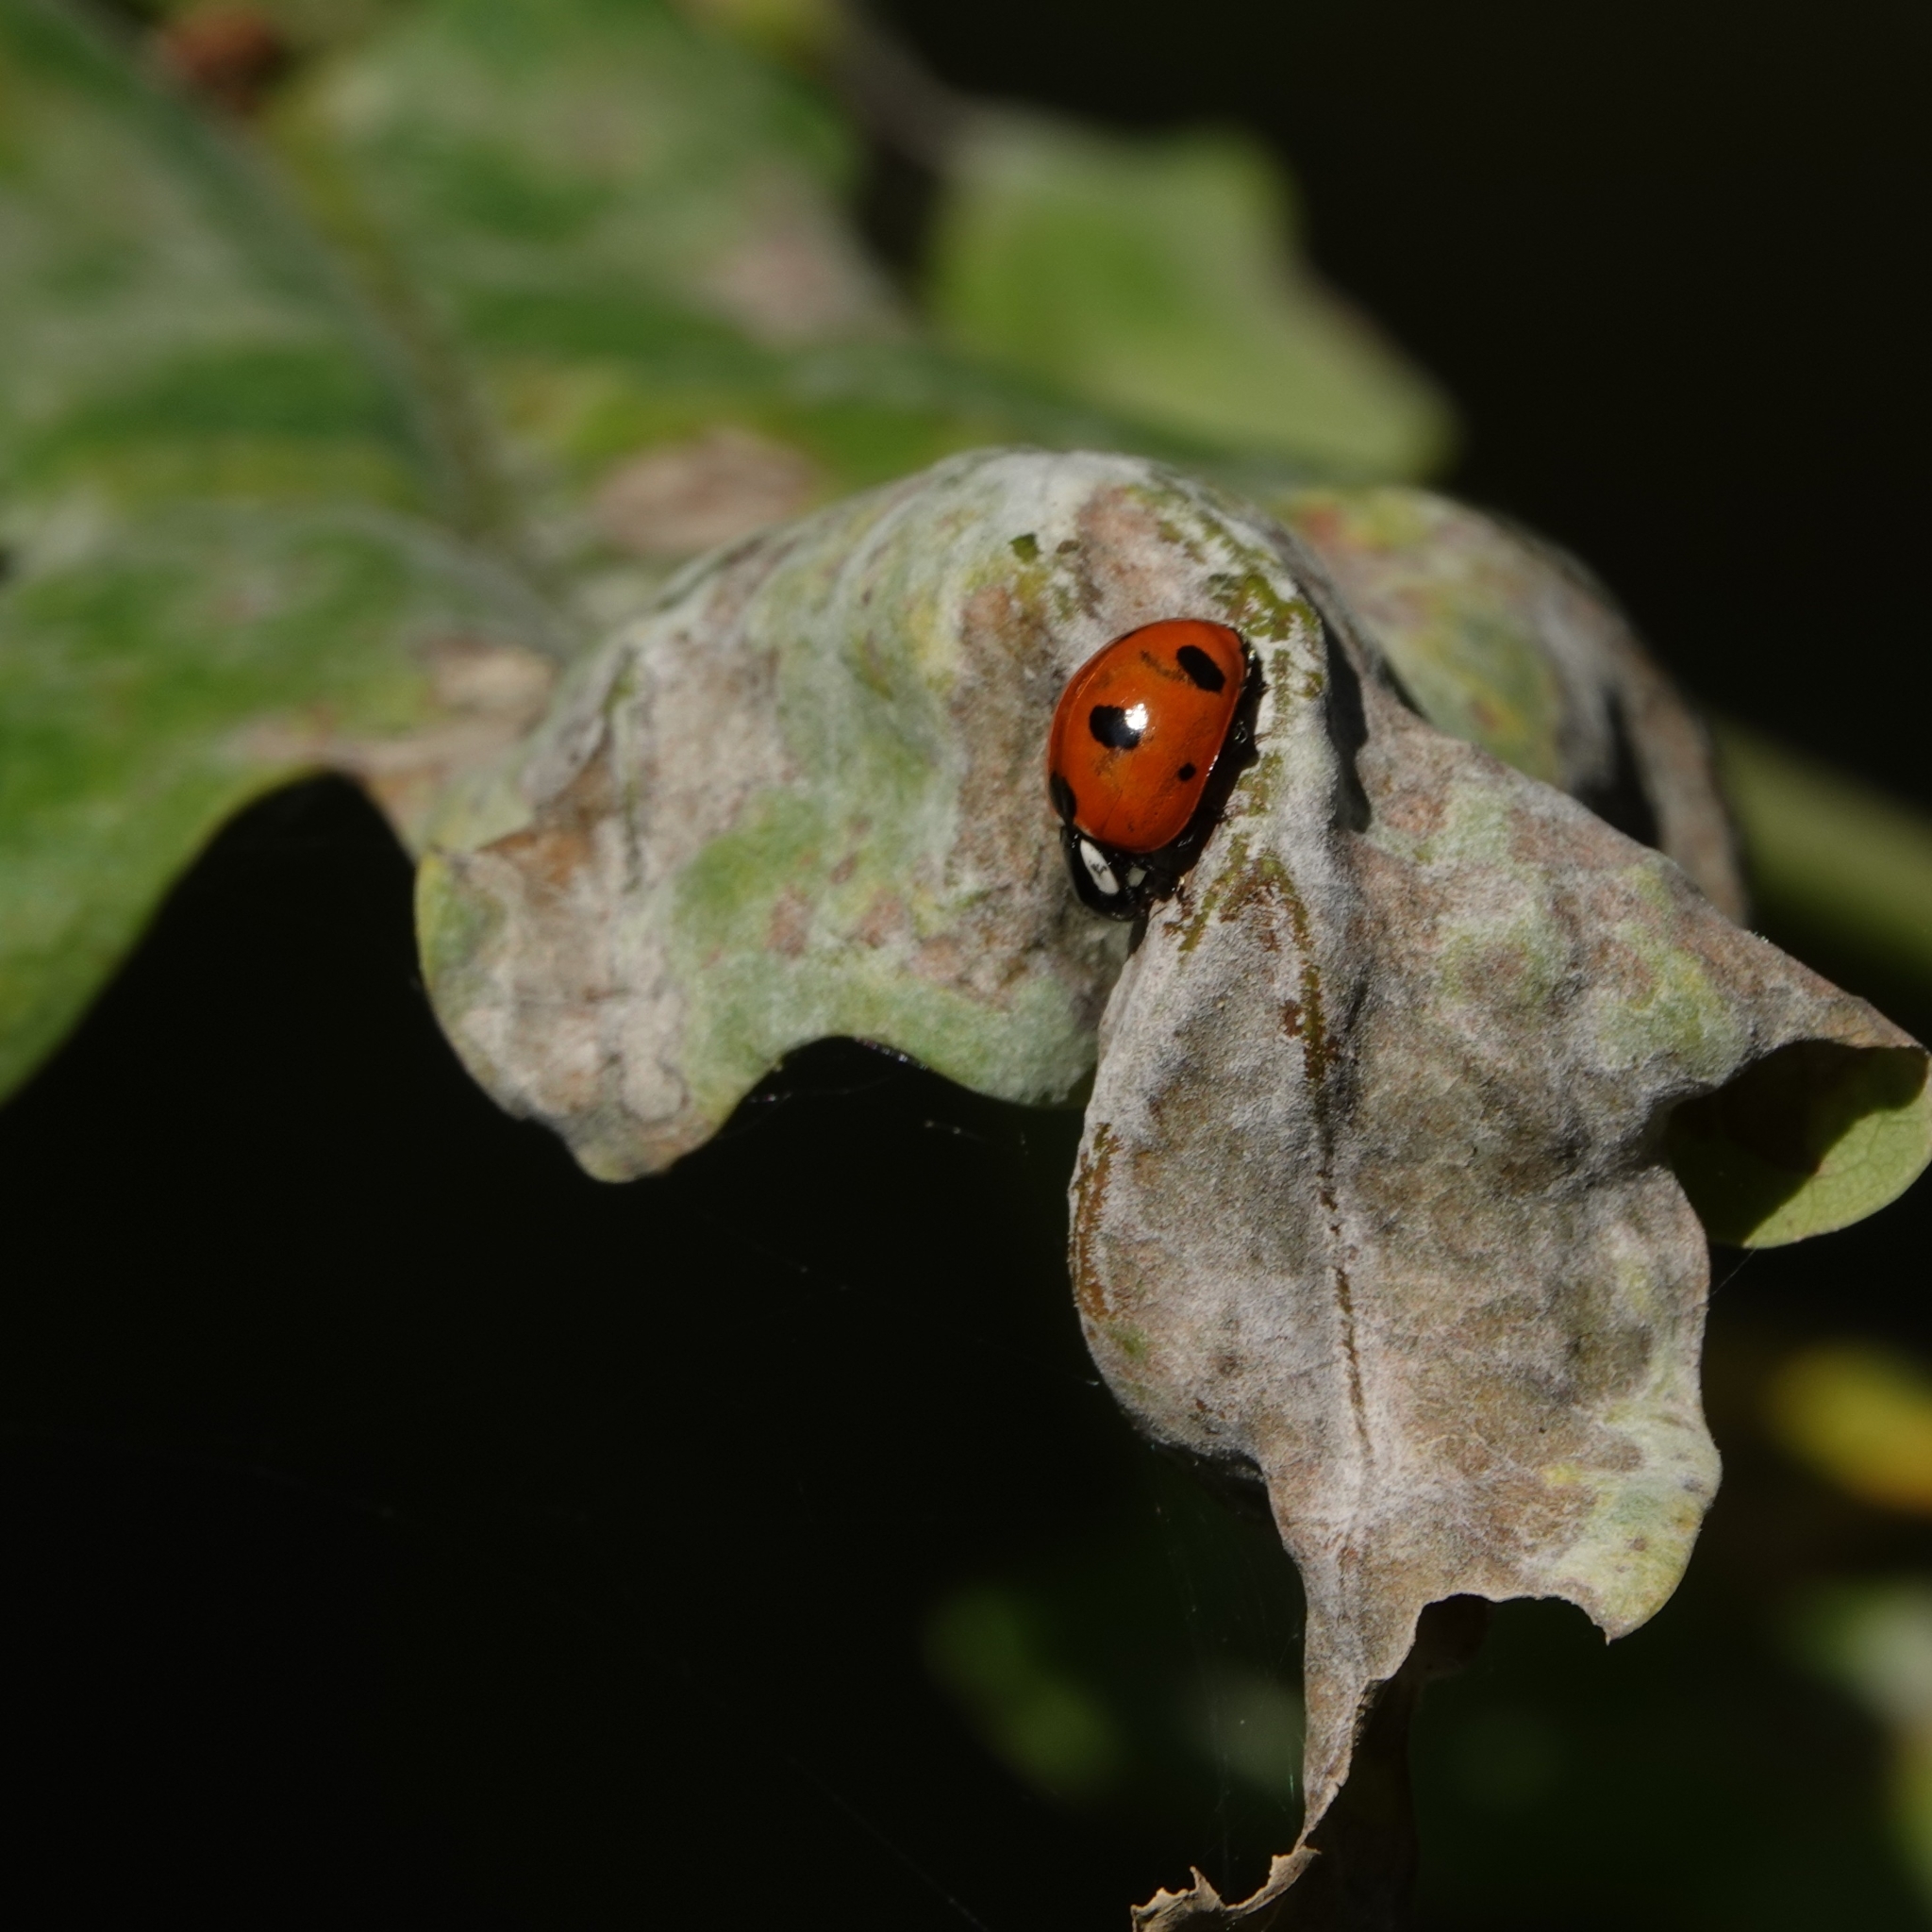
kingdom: Animalia
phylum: Arthropoda
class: Insecta
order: Coleoptera
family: Coccinellidae
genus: Coccinella
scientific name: Coccinella magnifica
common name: Scarce 7-spot ladybird
